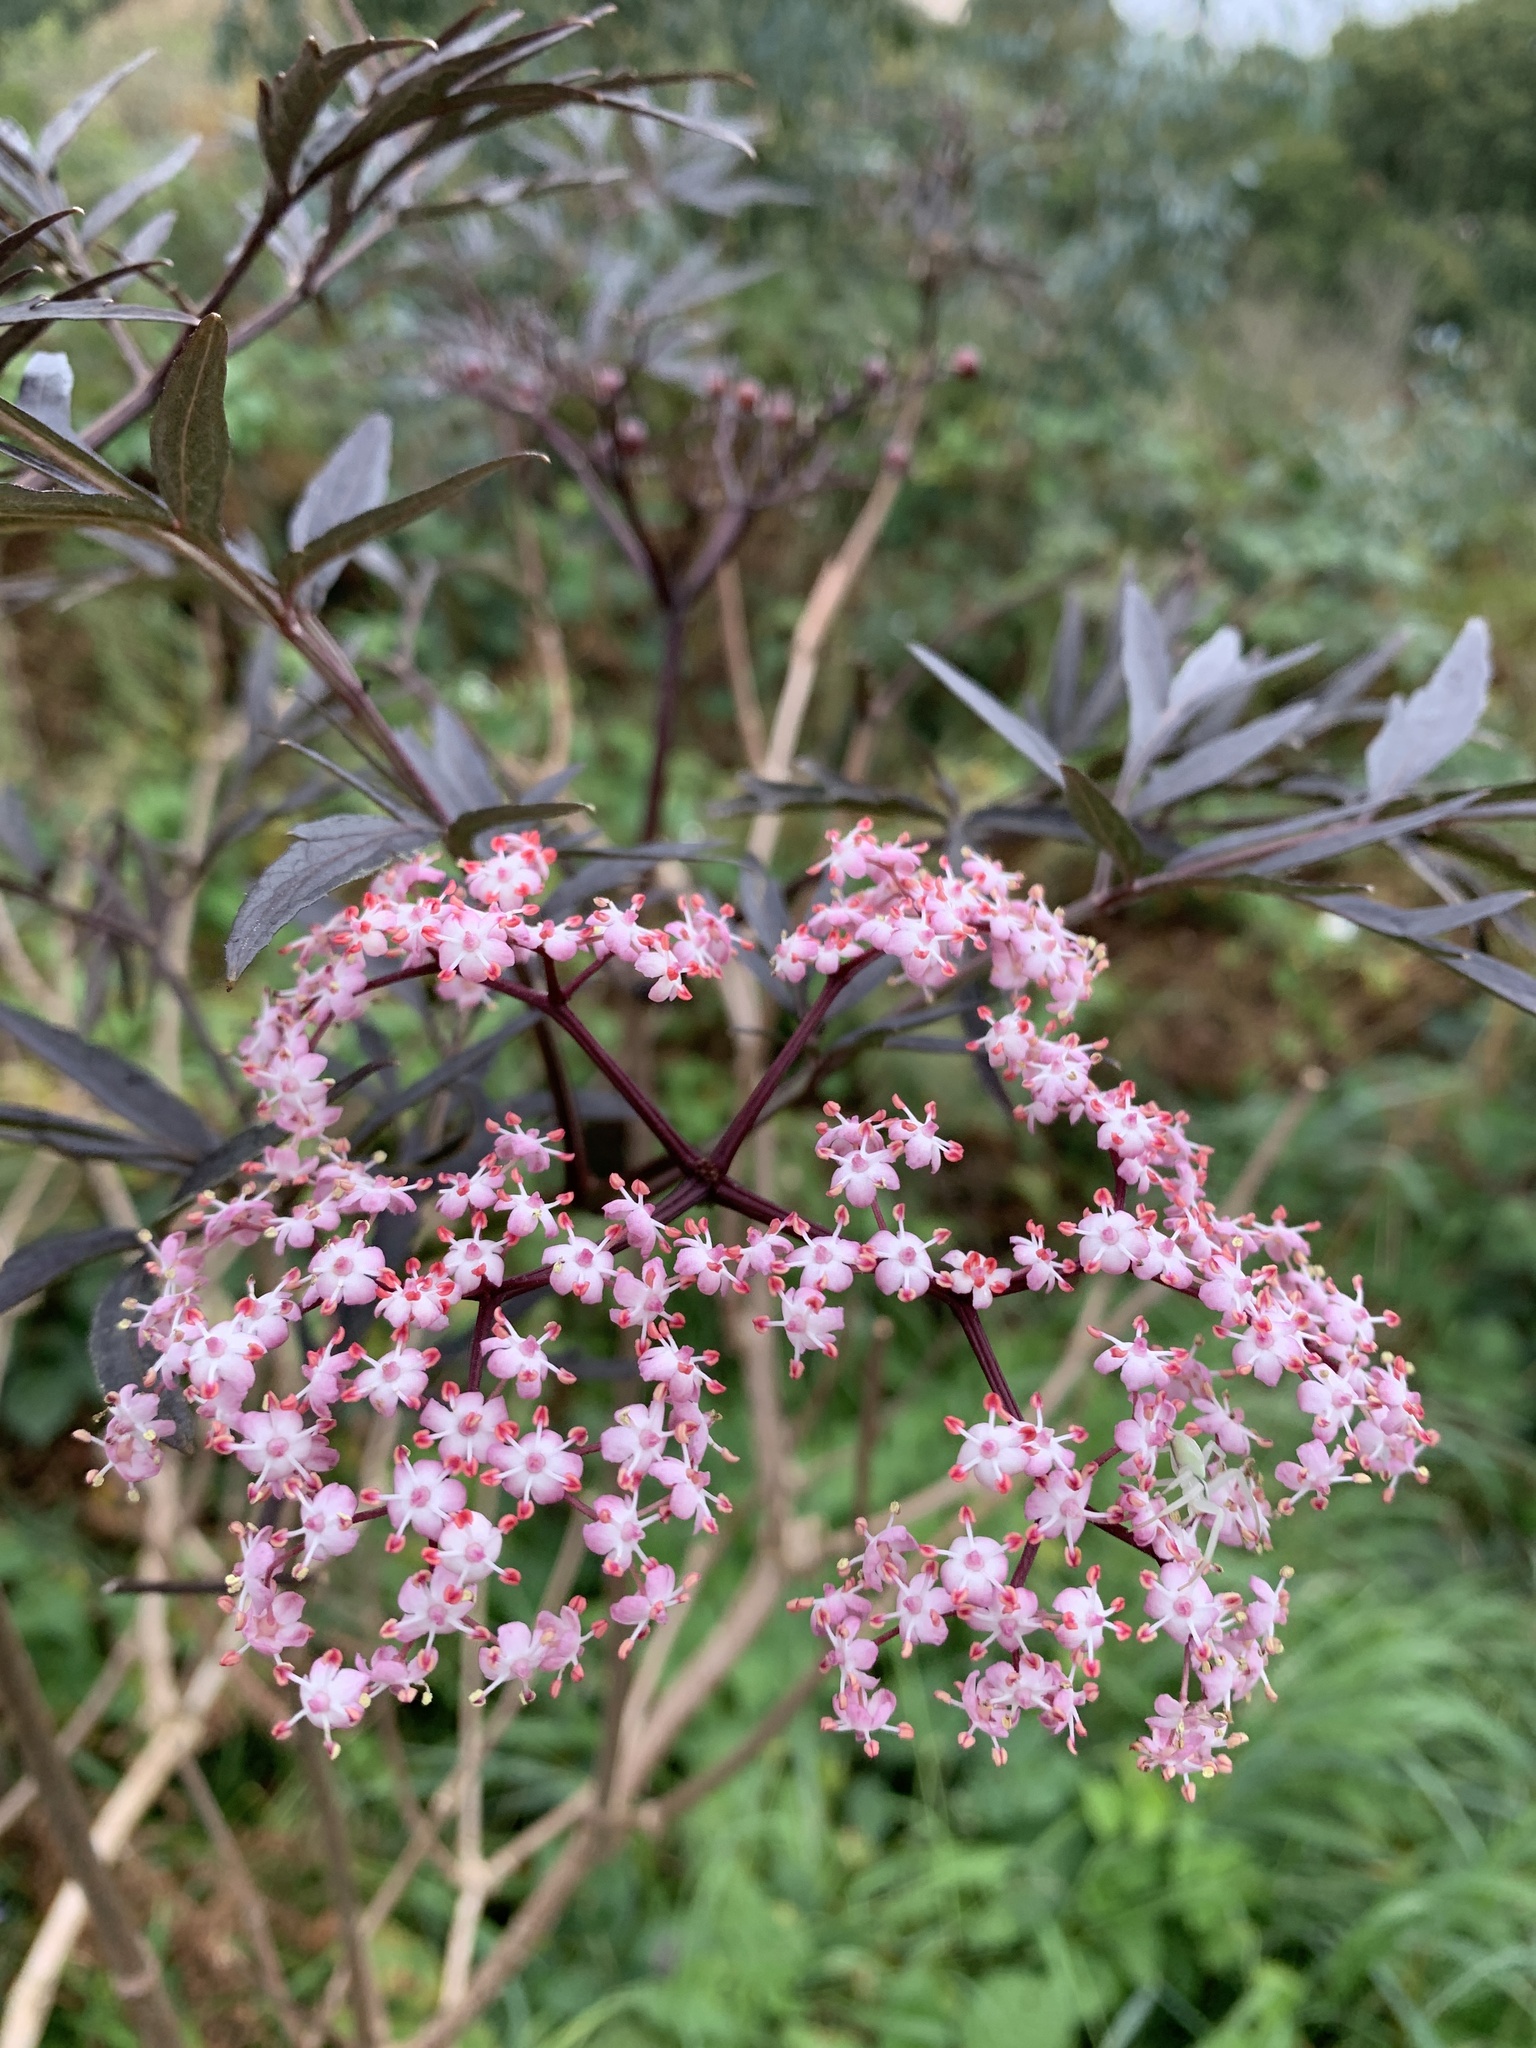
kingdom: Plantae
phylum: Tracheophyta
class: Magnoliopsida
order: Dipsacales
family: Viburnaceae
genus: Sambucus
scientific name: Sambucus nigra
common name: Elder
